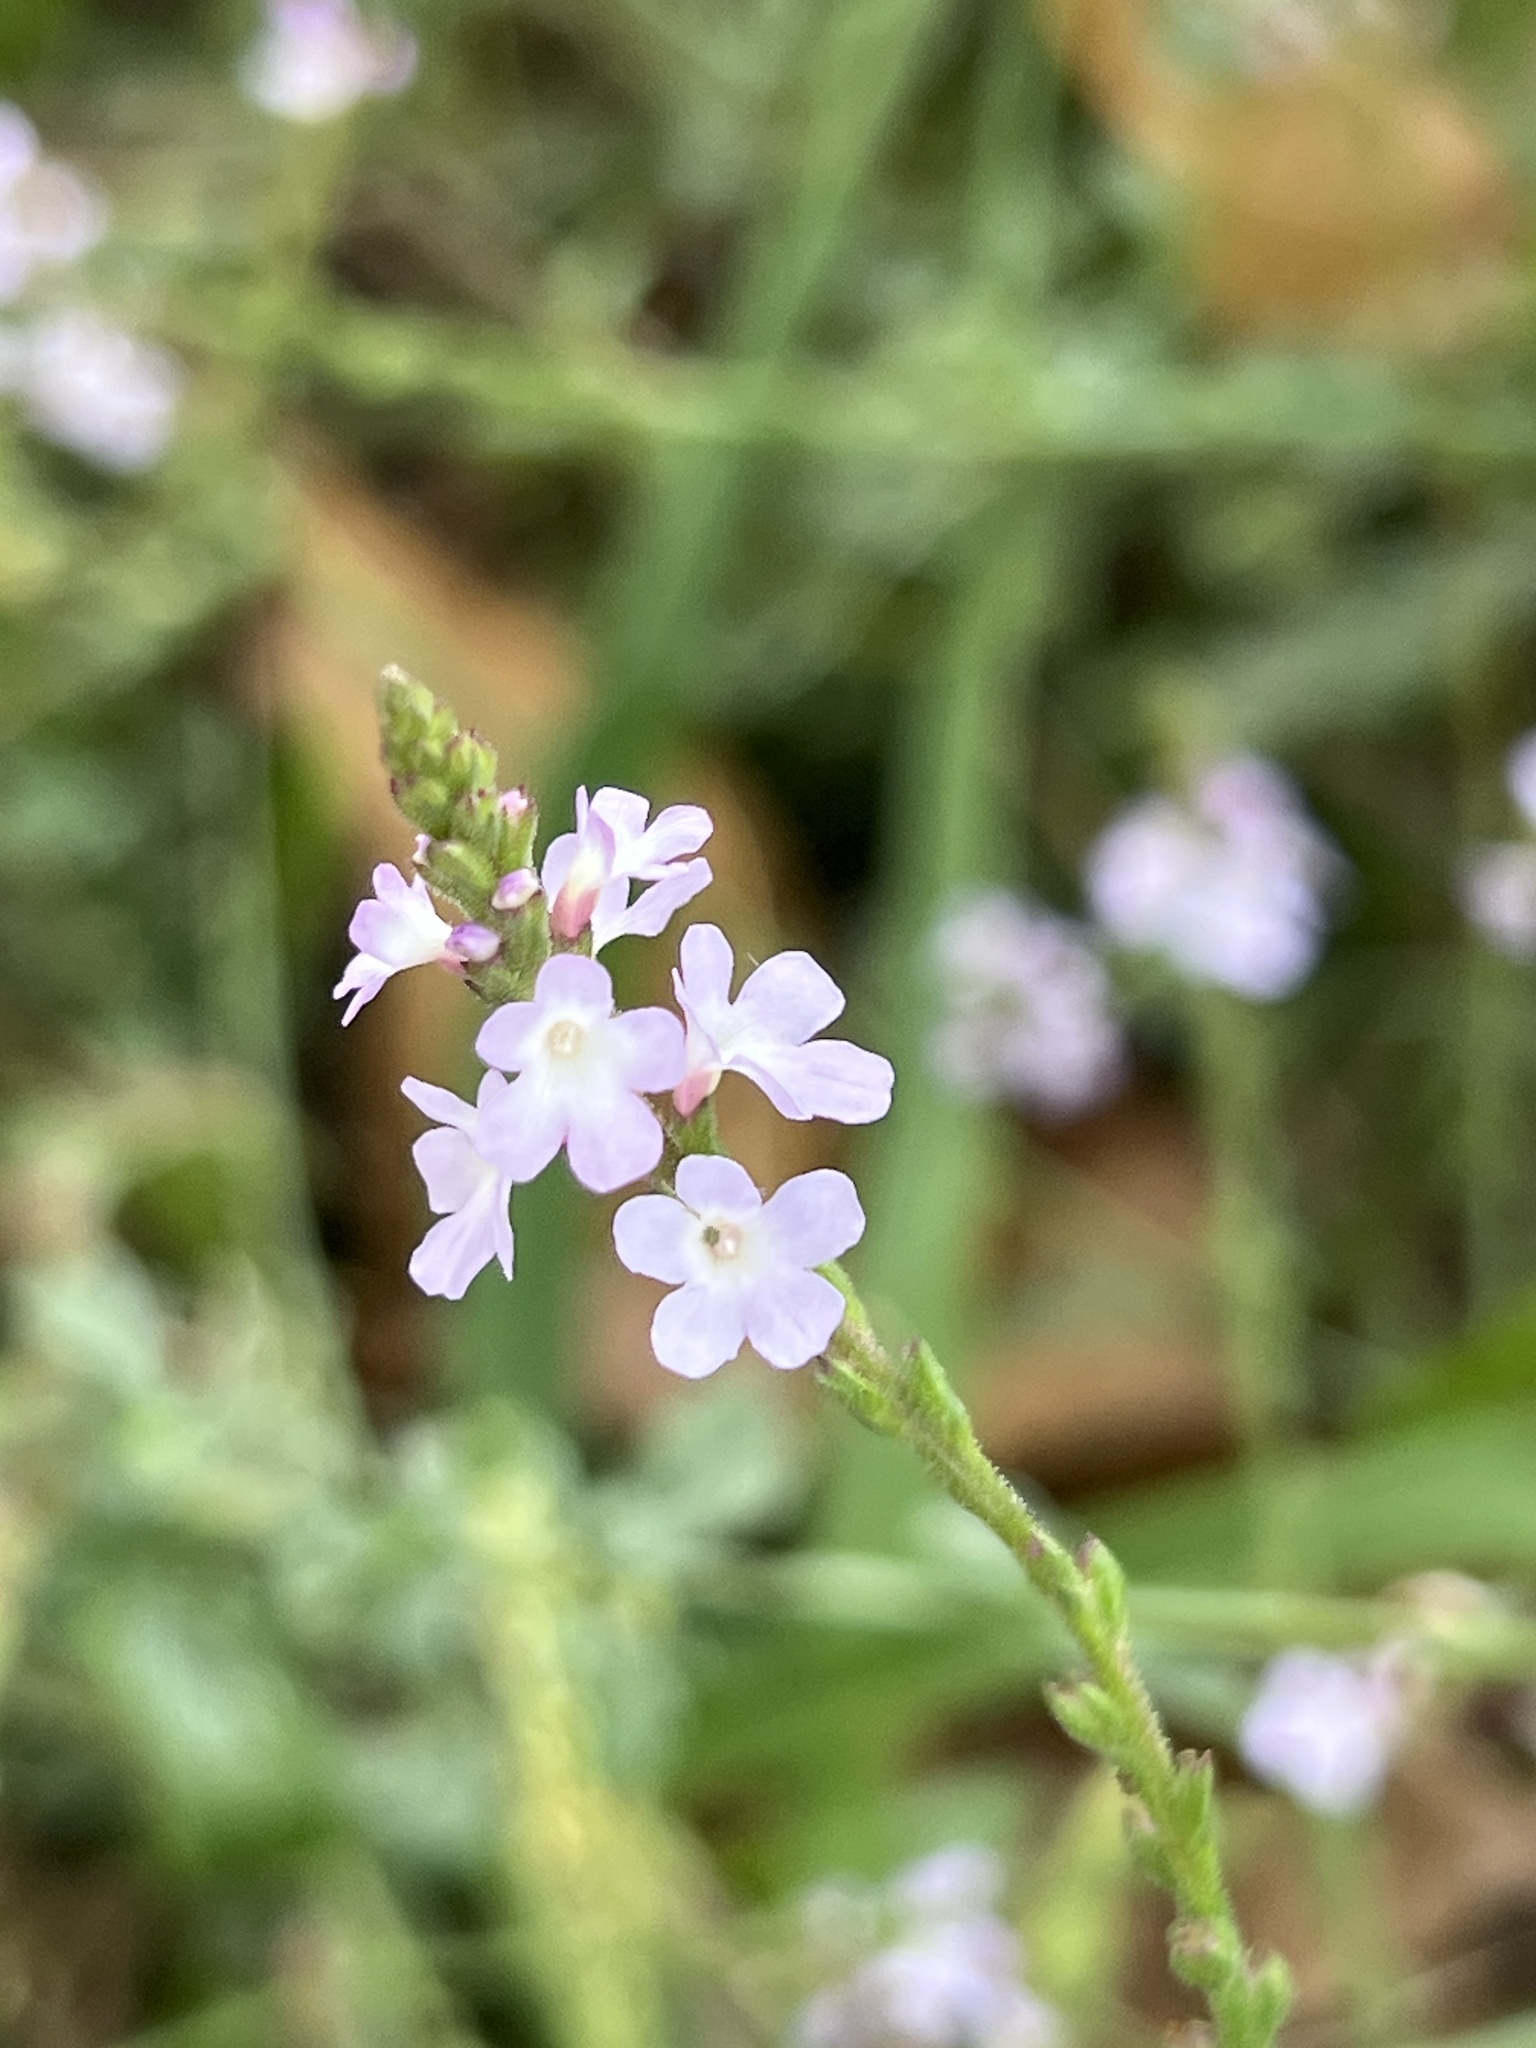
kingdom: Plantae
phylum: Tracheophyta
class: Magnoliopsida
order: Lamiales
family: Verbenaceae
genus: Verbena
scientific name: Verbena officinalis
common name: Vervain
